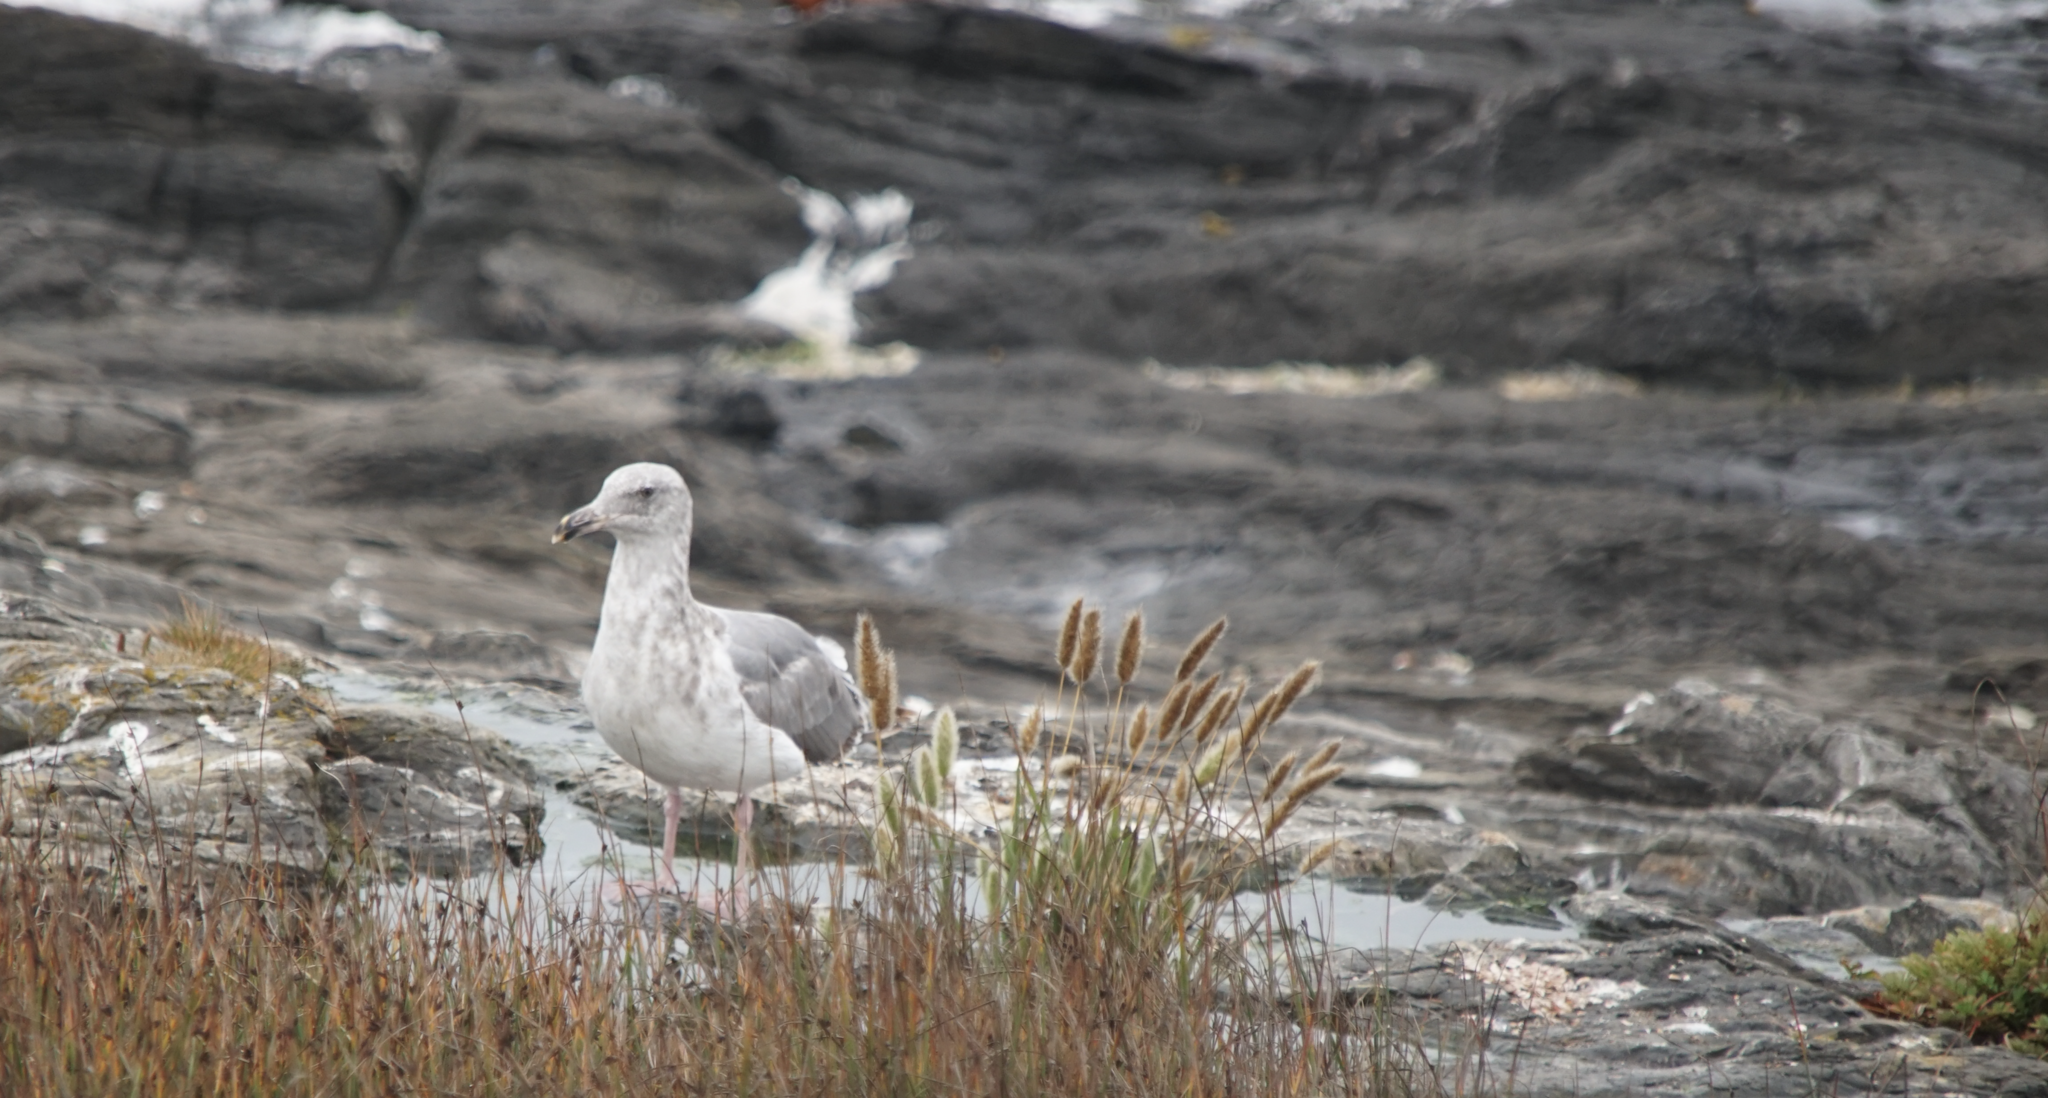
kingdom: Animalia
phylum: Chordata
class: Aves
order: Charadriiformes
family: Laridae
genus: Larus
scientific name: Larus occidentalis
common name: Western gull
